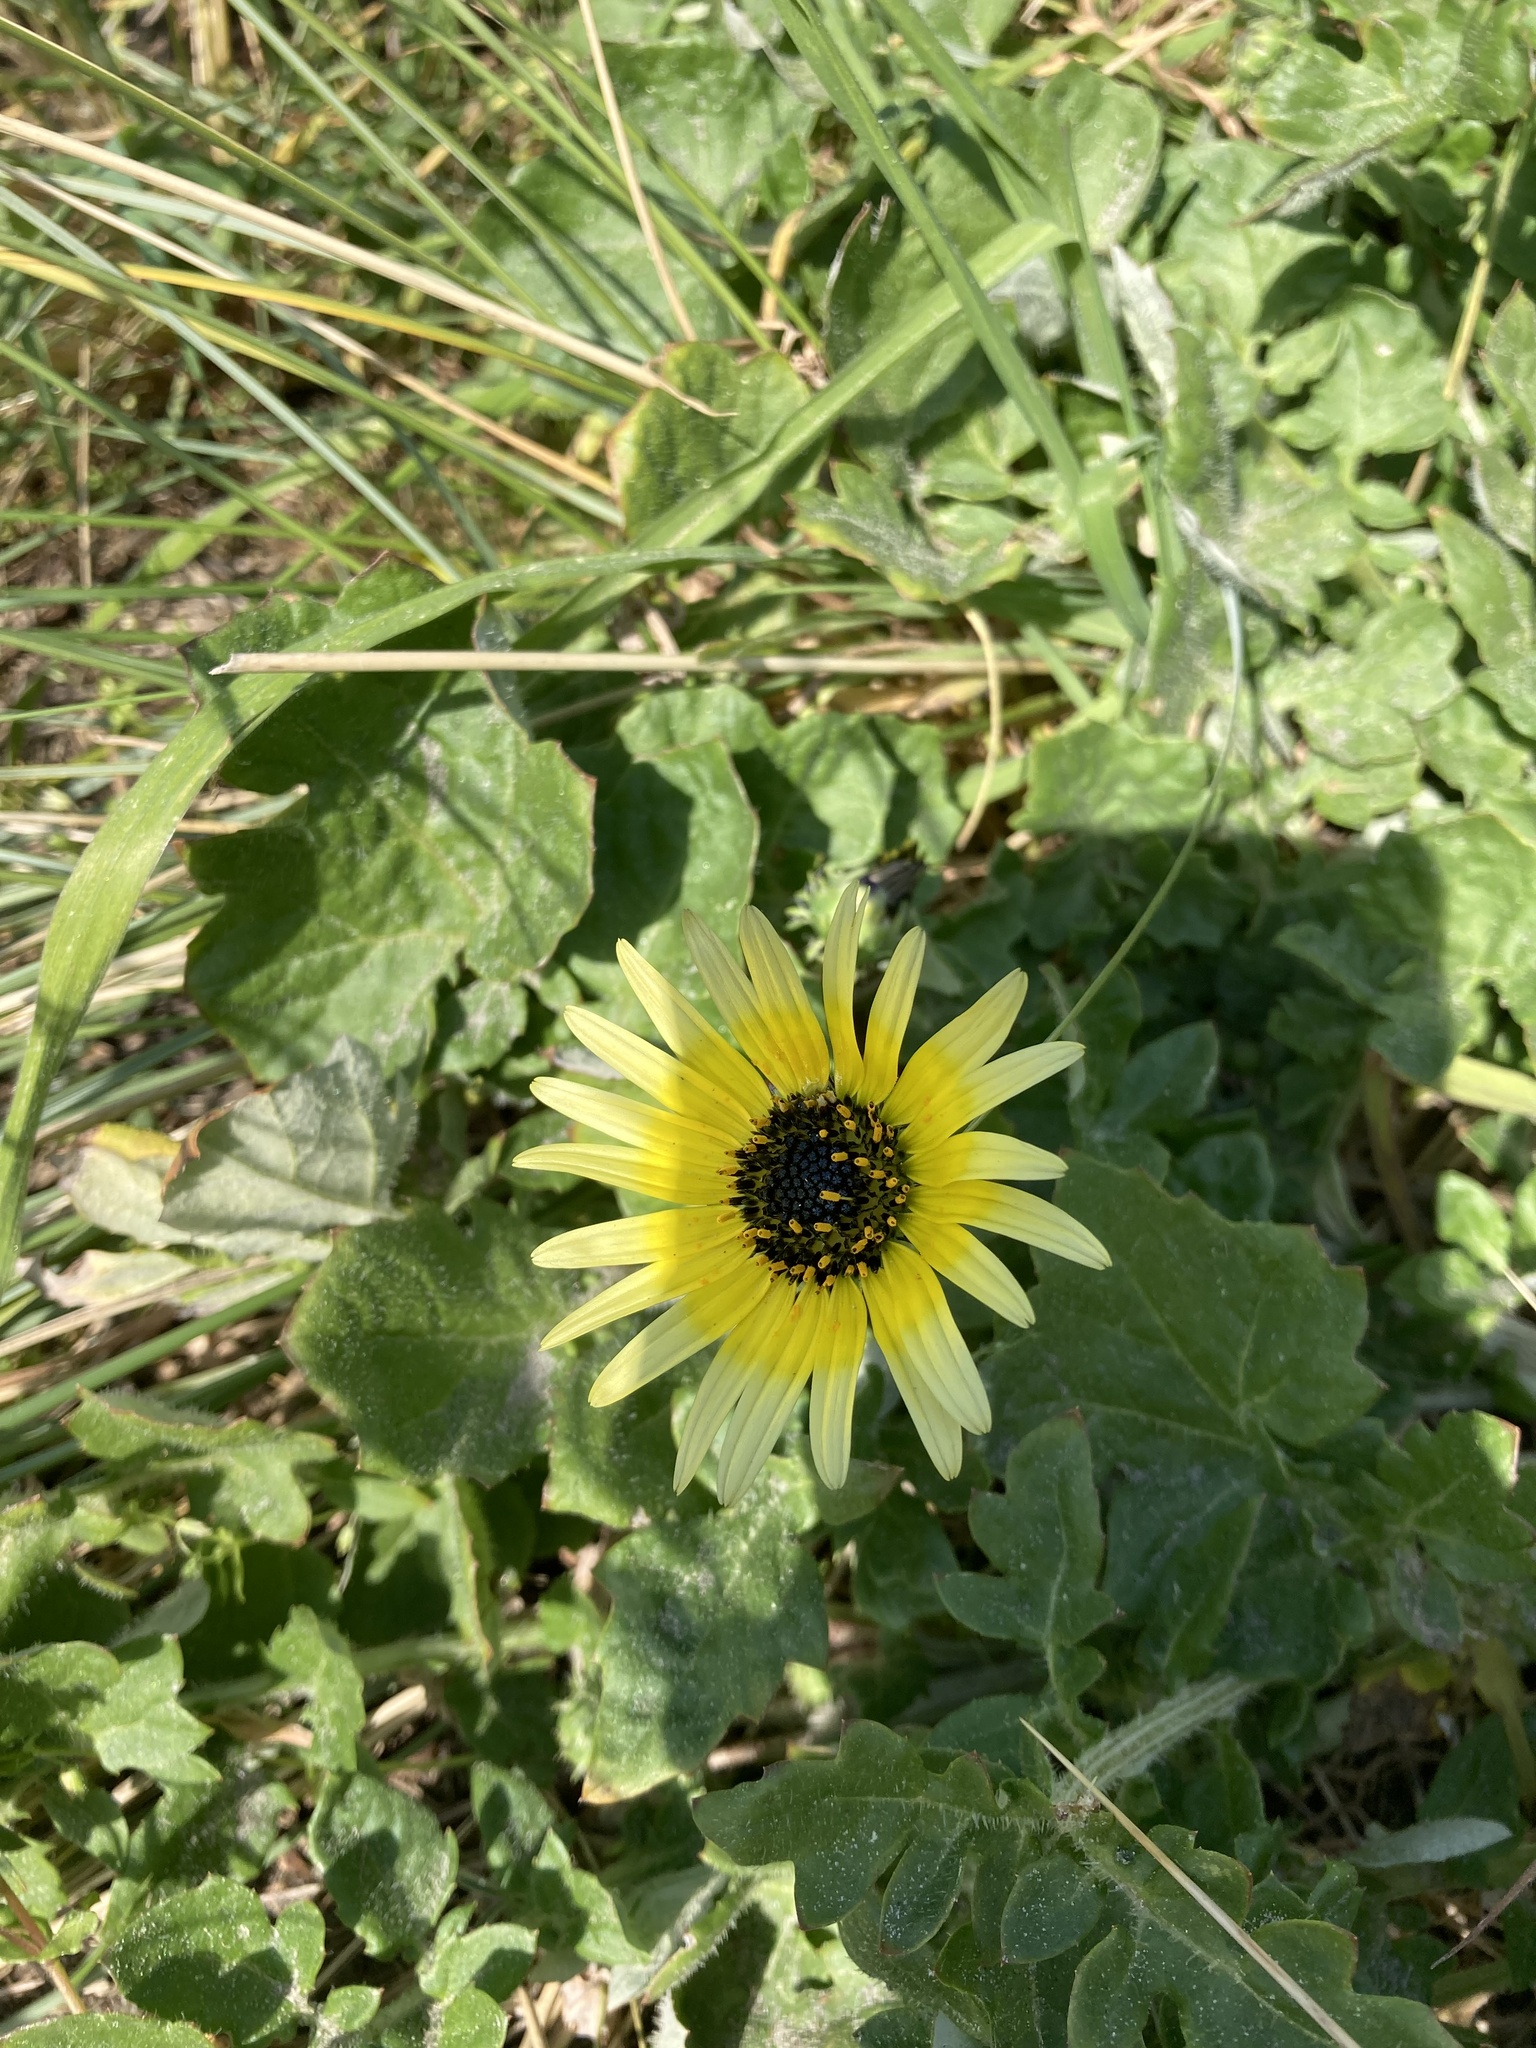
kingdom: Plantae
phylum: Tracheophyta
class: Magnoliopsida
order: Asterales
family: Asteraceae
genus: Arctotheca
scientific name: Arctotheca calendula
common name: Capeweed
